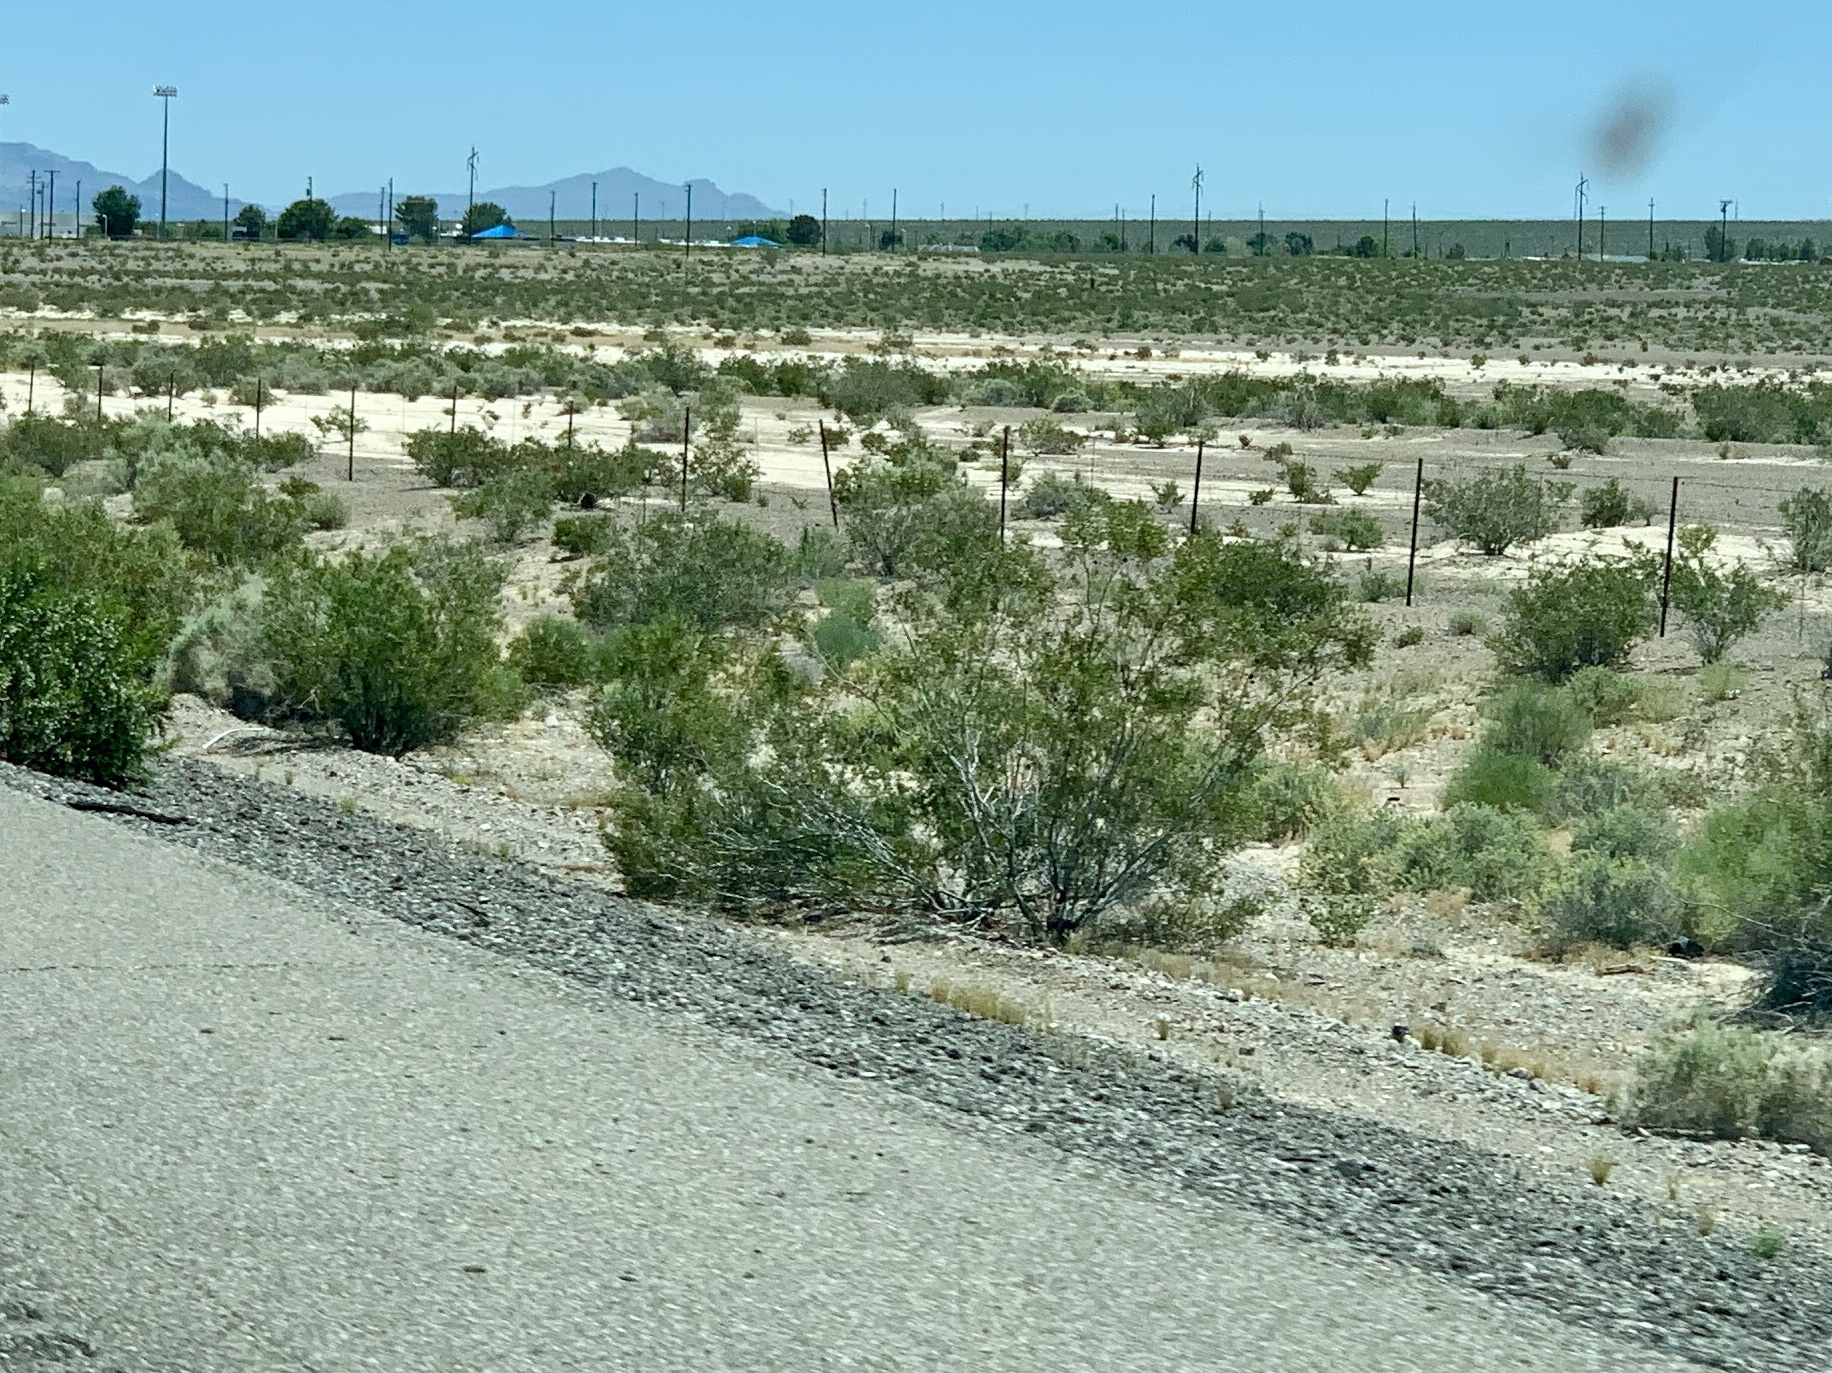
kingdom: Plantae
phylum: Tracheophyta
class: Magnoliopsida
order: Zygophyllales
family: Zygophyllaceae
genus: Larrea
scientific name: Larrea tridentata
